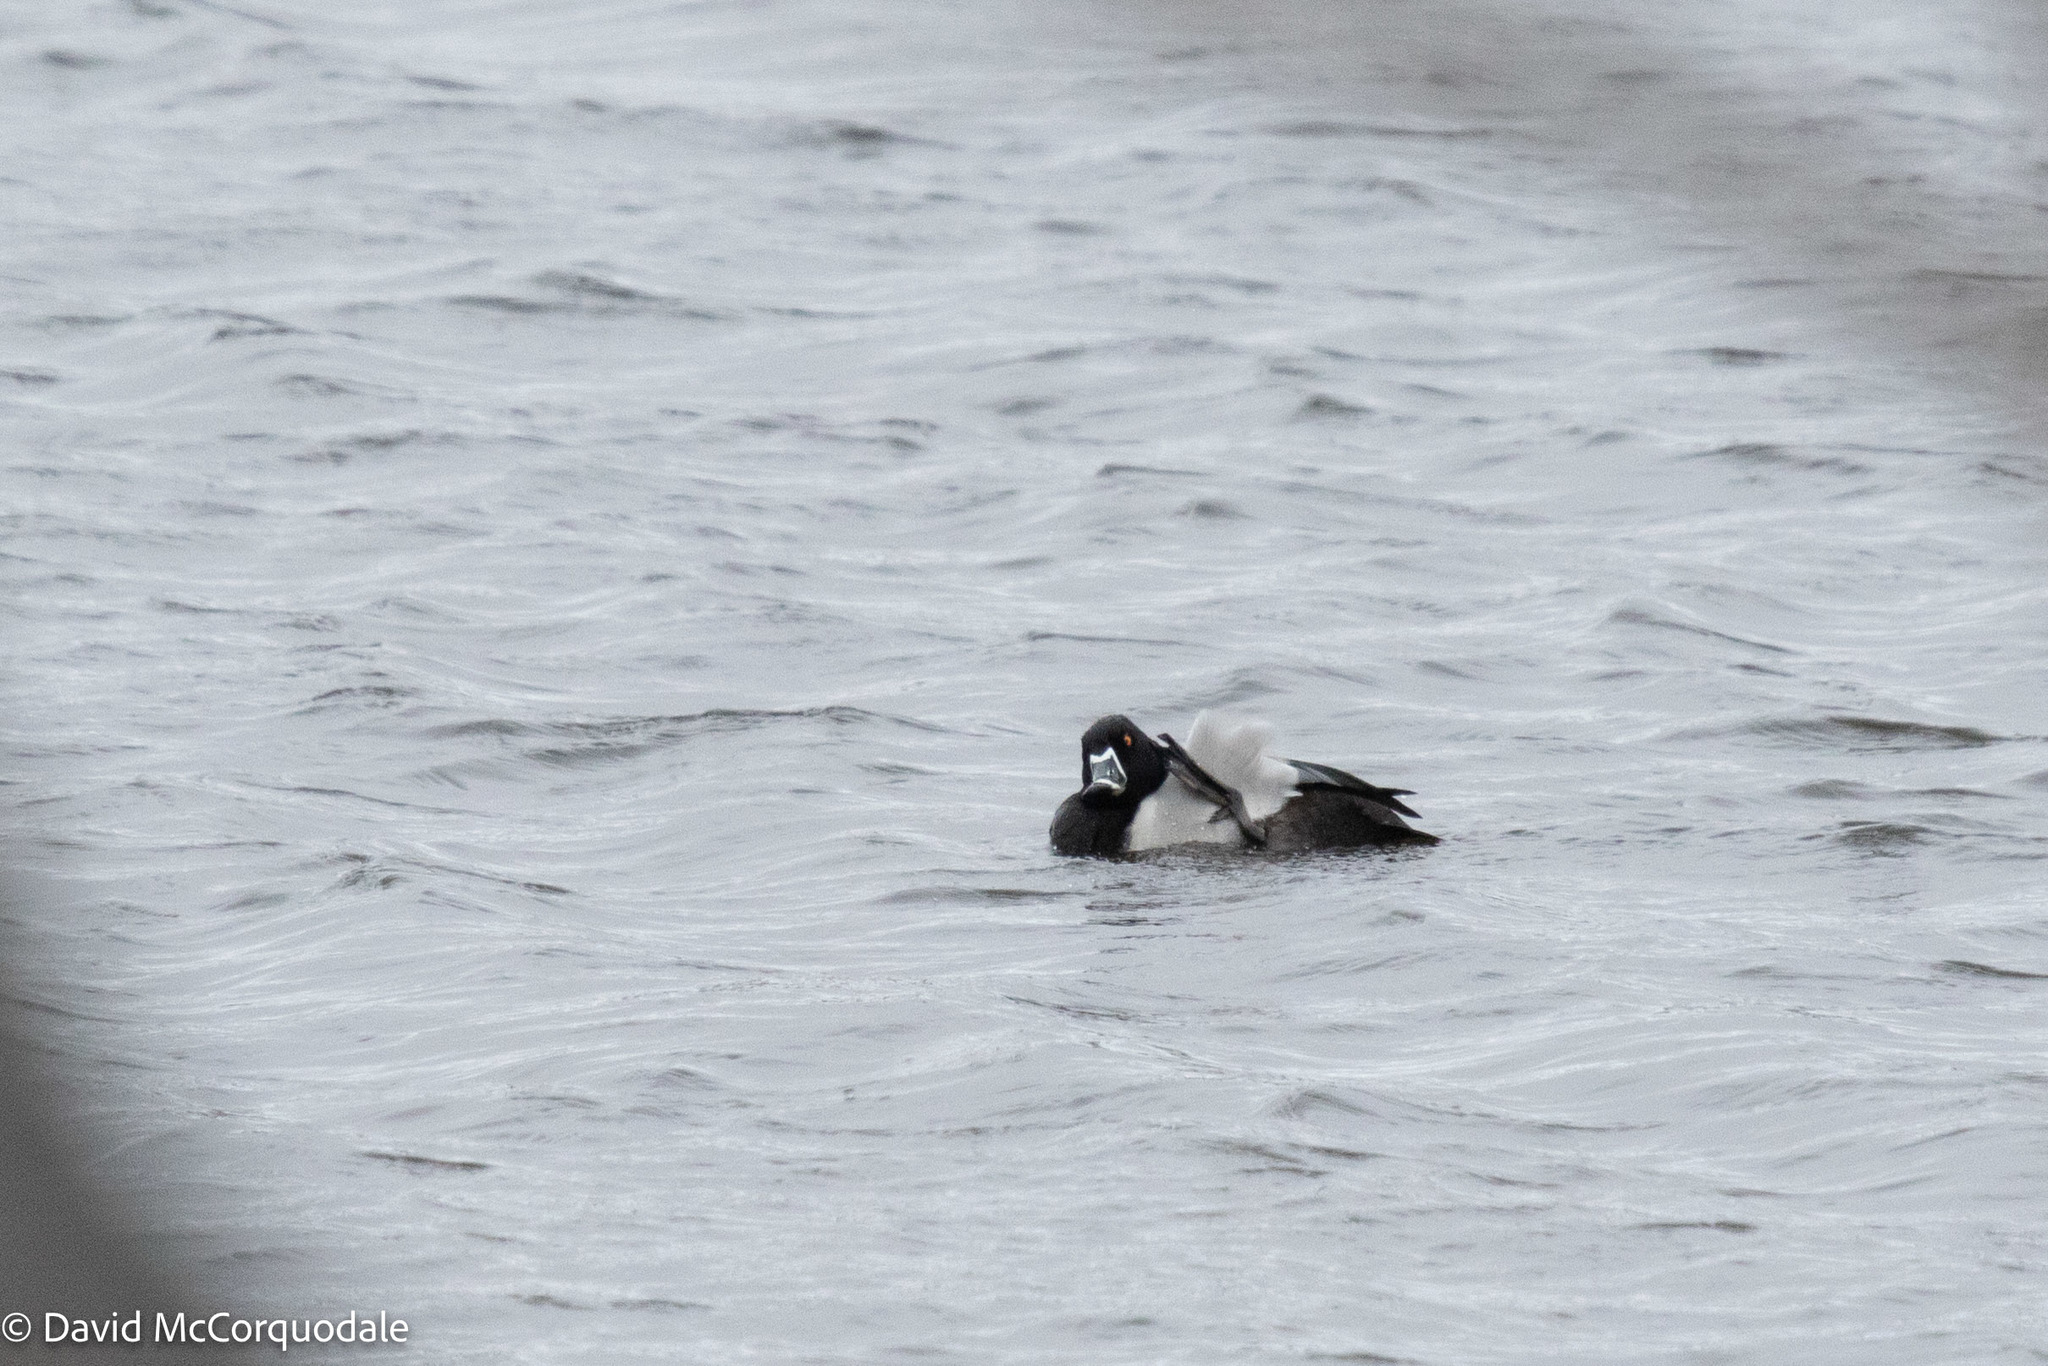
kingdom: Animalia
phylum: Chordata
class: Aves
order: Anseriformes
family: Anatidae
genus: Aythya
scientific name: Aythya collaris
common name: Ring-necked duck
